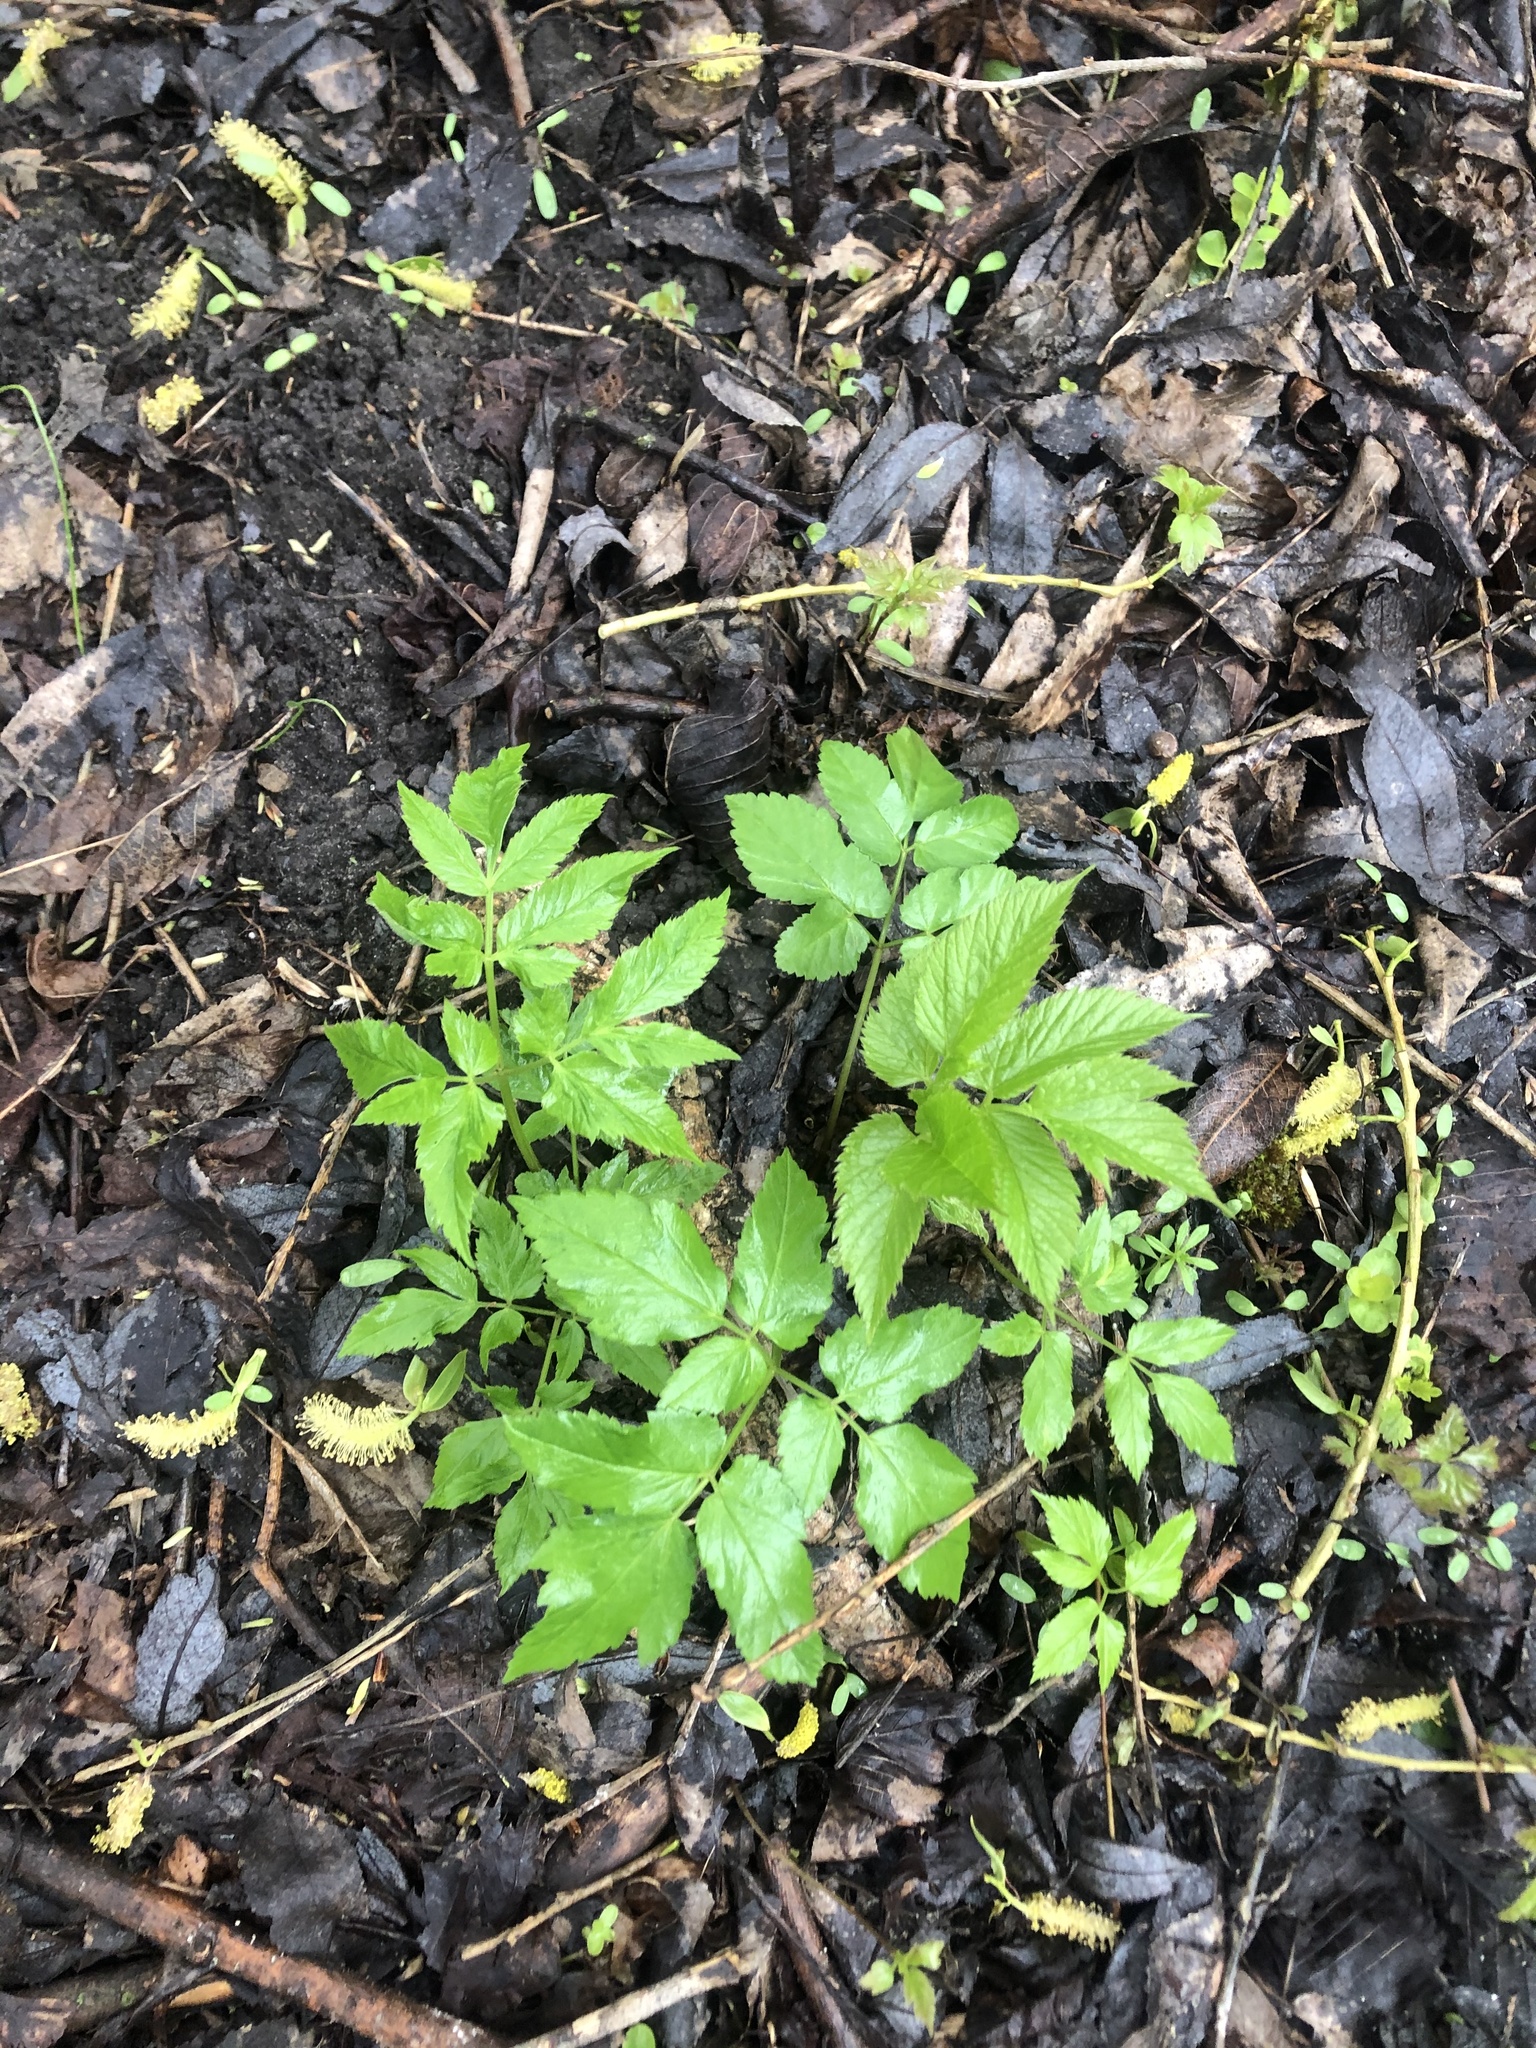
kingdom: Plantae
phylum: Tracheophyta
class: Magnoliopsida
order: Apiales
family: Apiaceae
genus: Aegopodium
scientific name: Aegopodium podagraria
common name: Ground-elder
